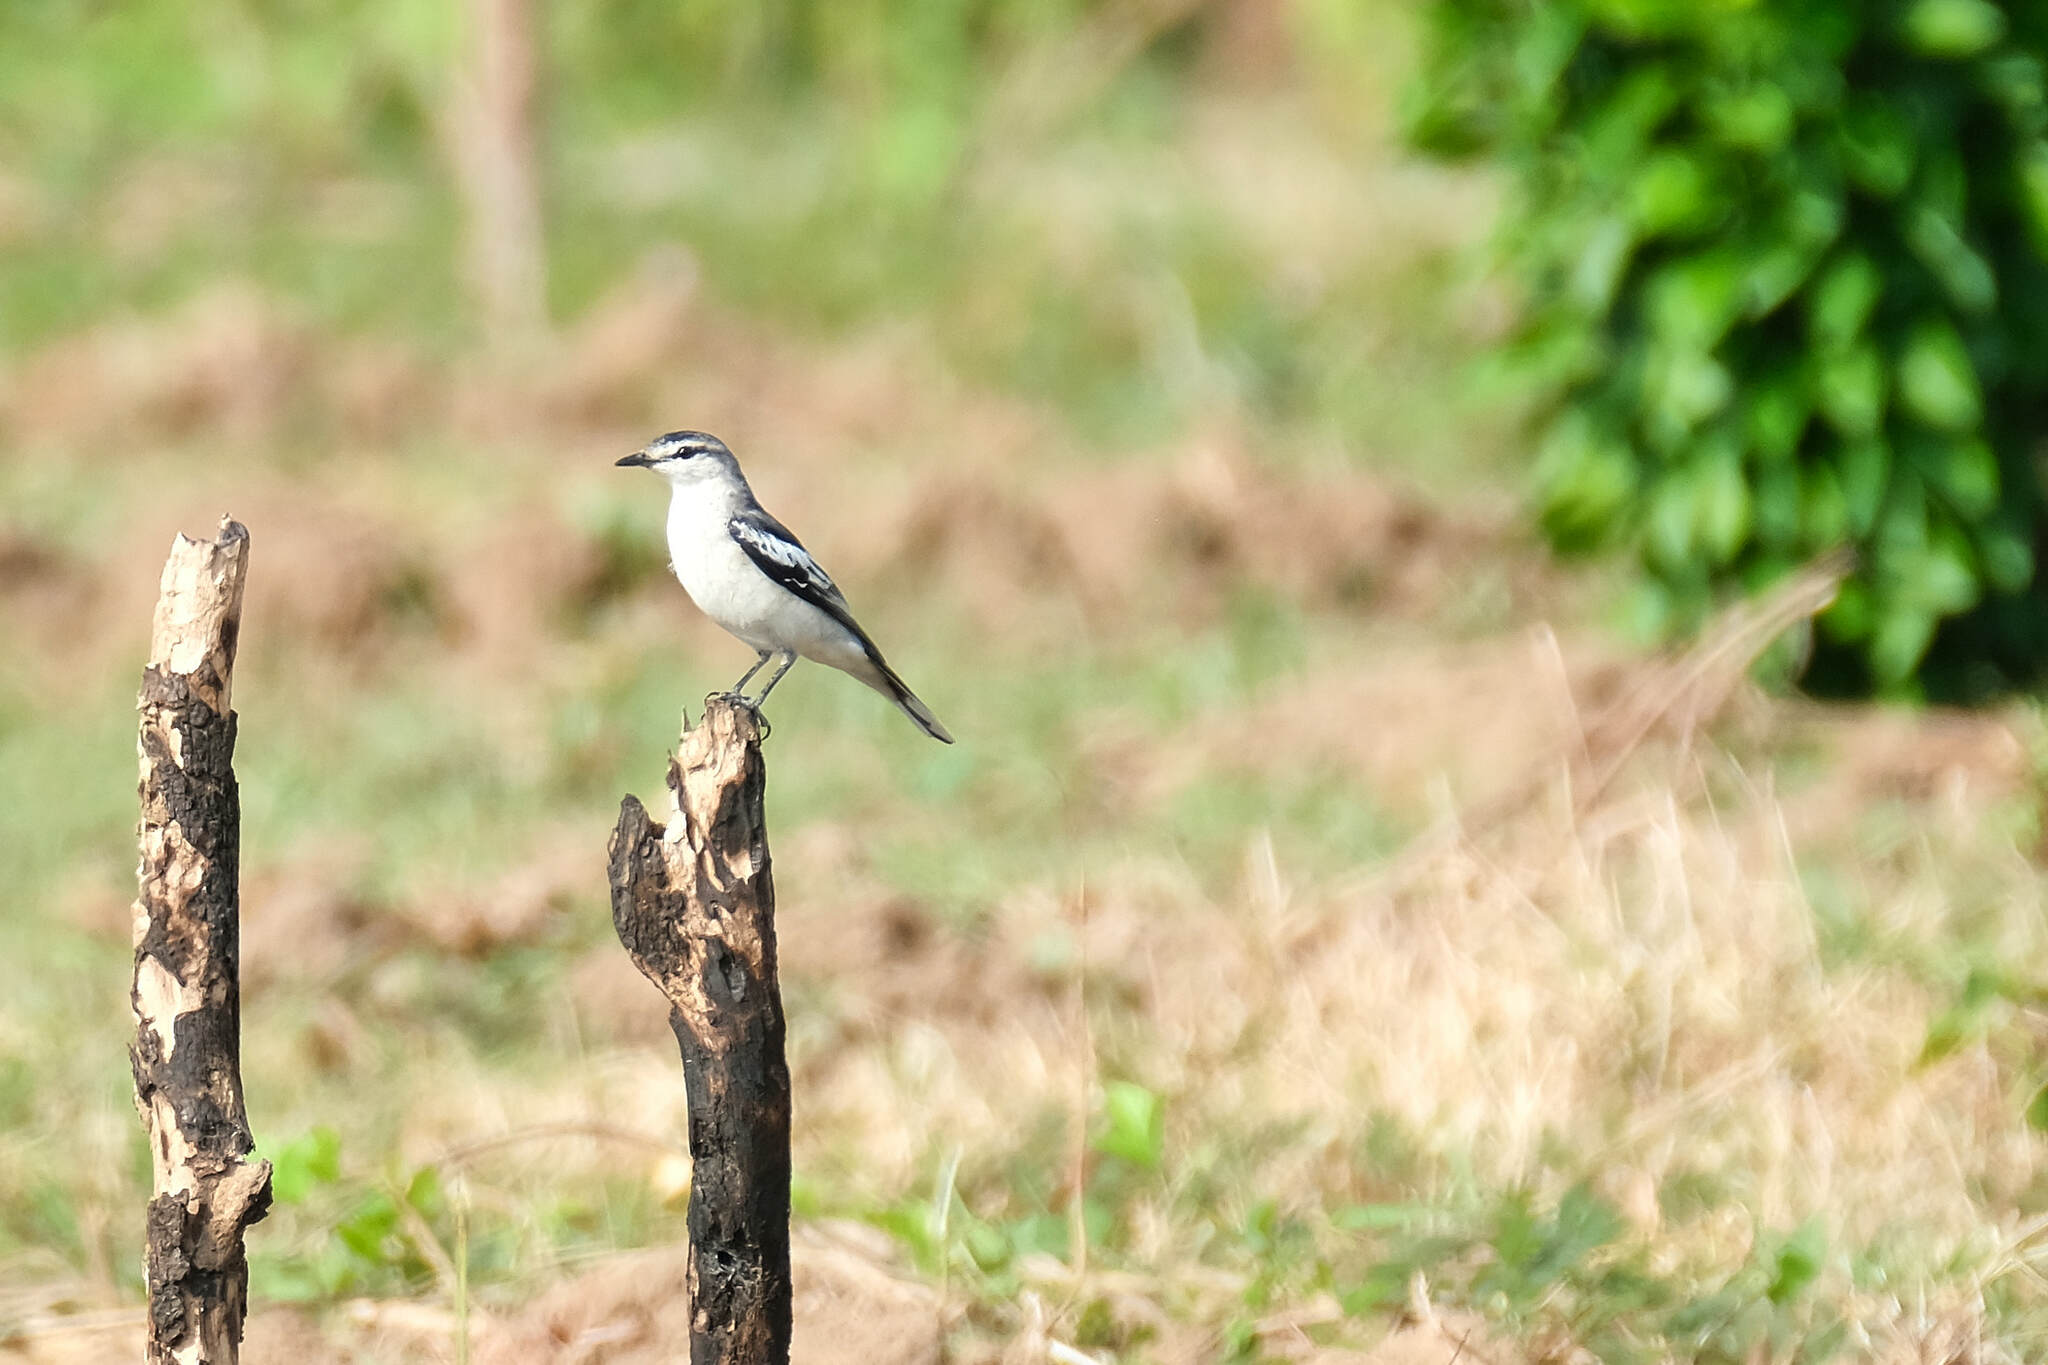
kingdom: Animalia
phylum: Chordata
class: Aves
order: Passeriformes
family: Campephagidae
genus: Lalage
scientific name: Lalage sueurii
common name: White-shouldered triller
